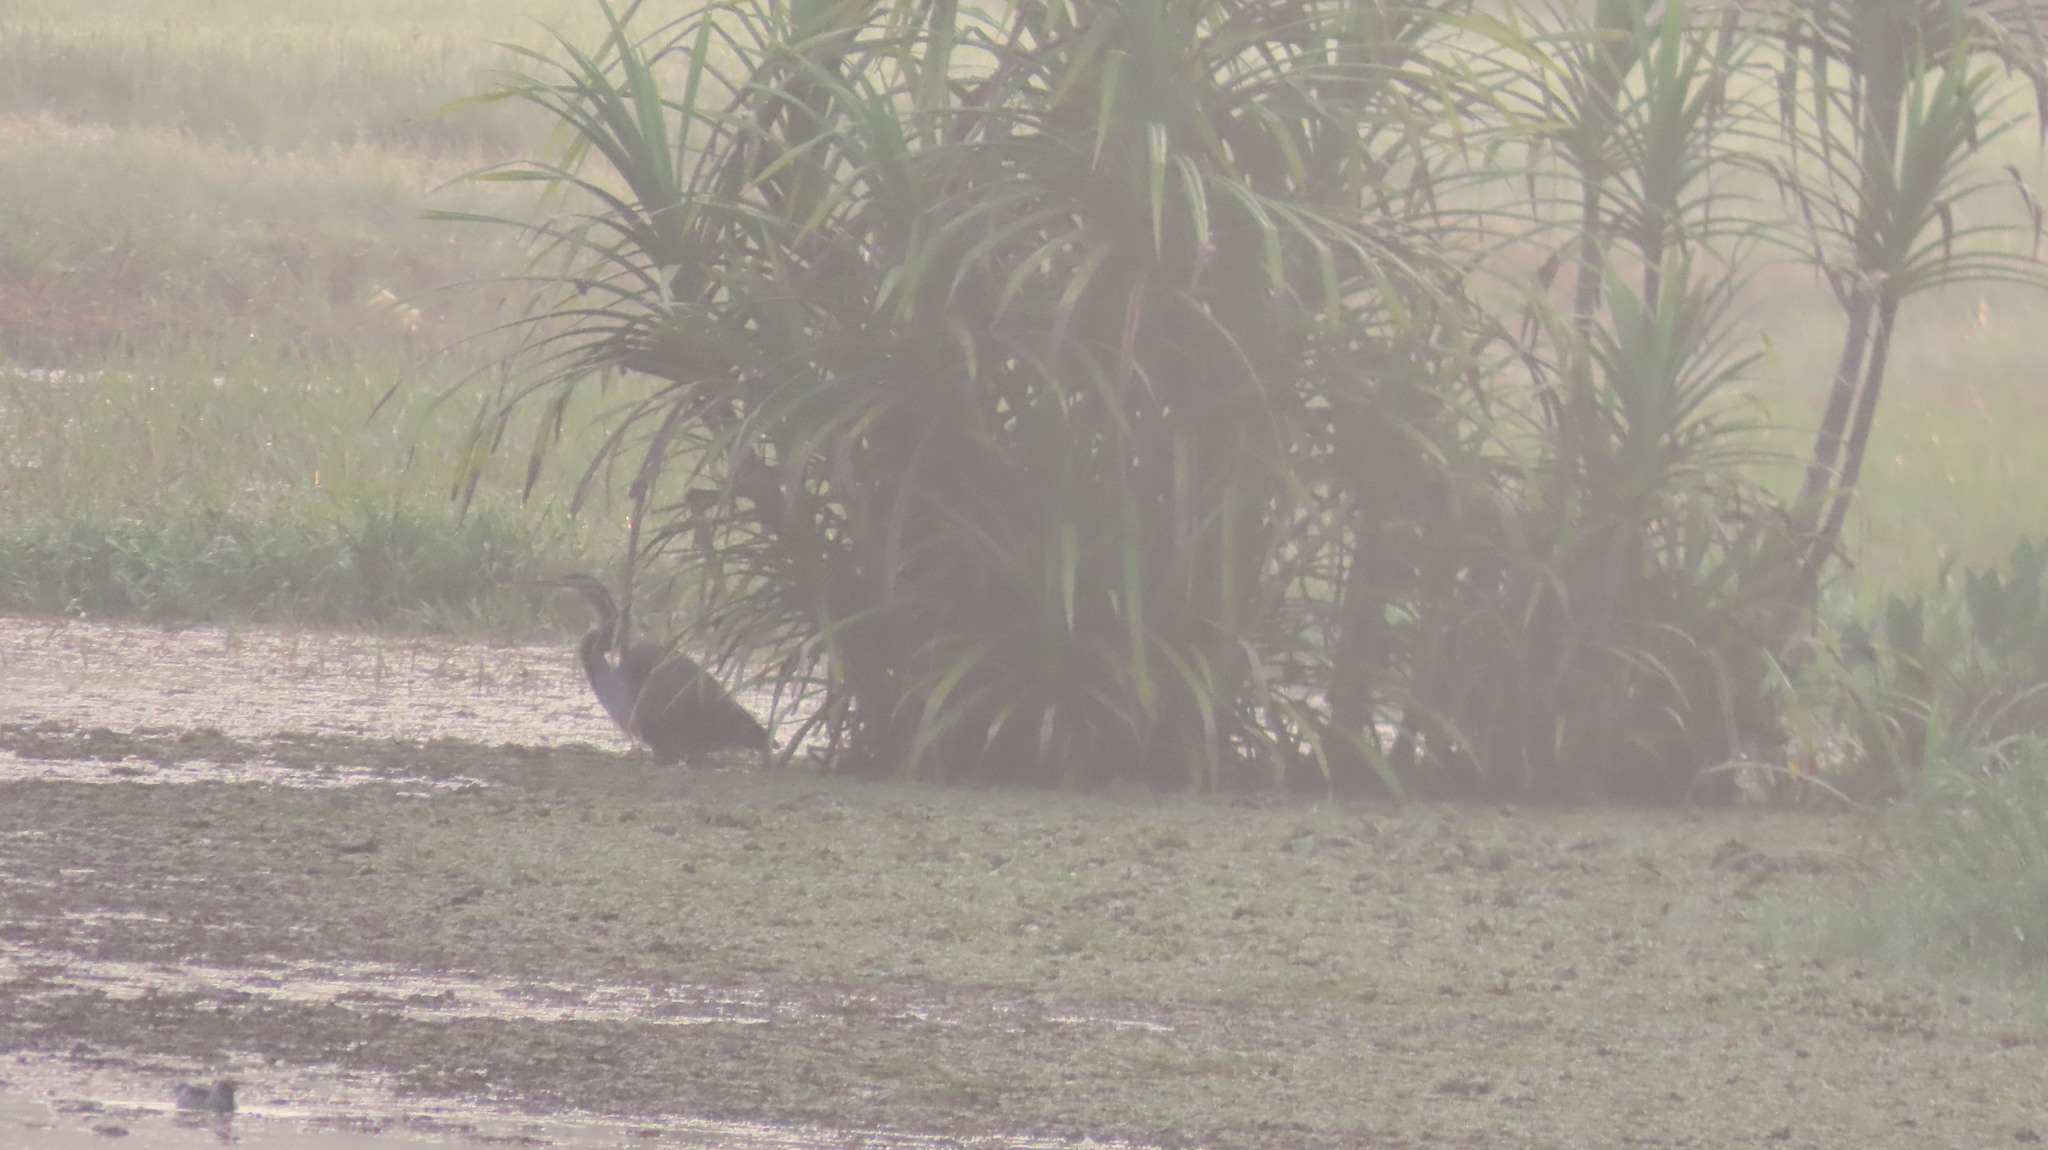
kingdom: Animalia
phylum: Chordata
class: Aves
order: Pelecaniformes
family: Ardeidae
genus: Ardea
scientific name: Ardea purpurea
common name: Purple heron
